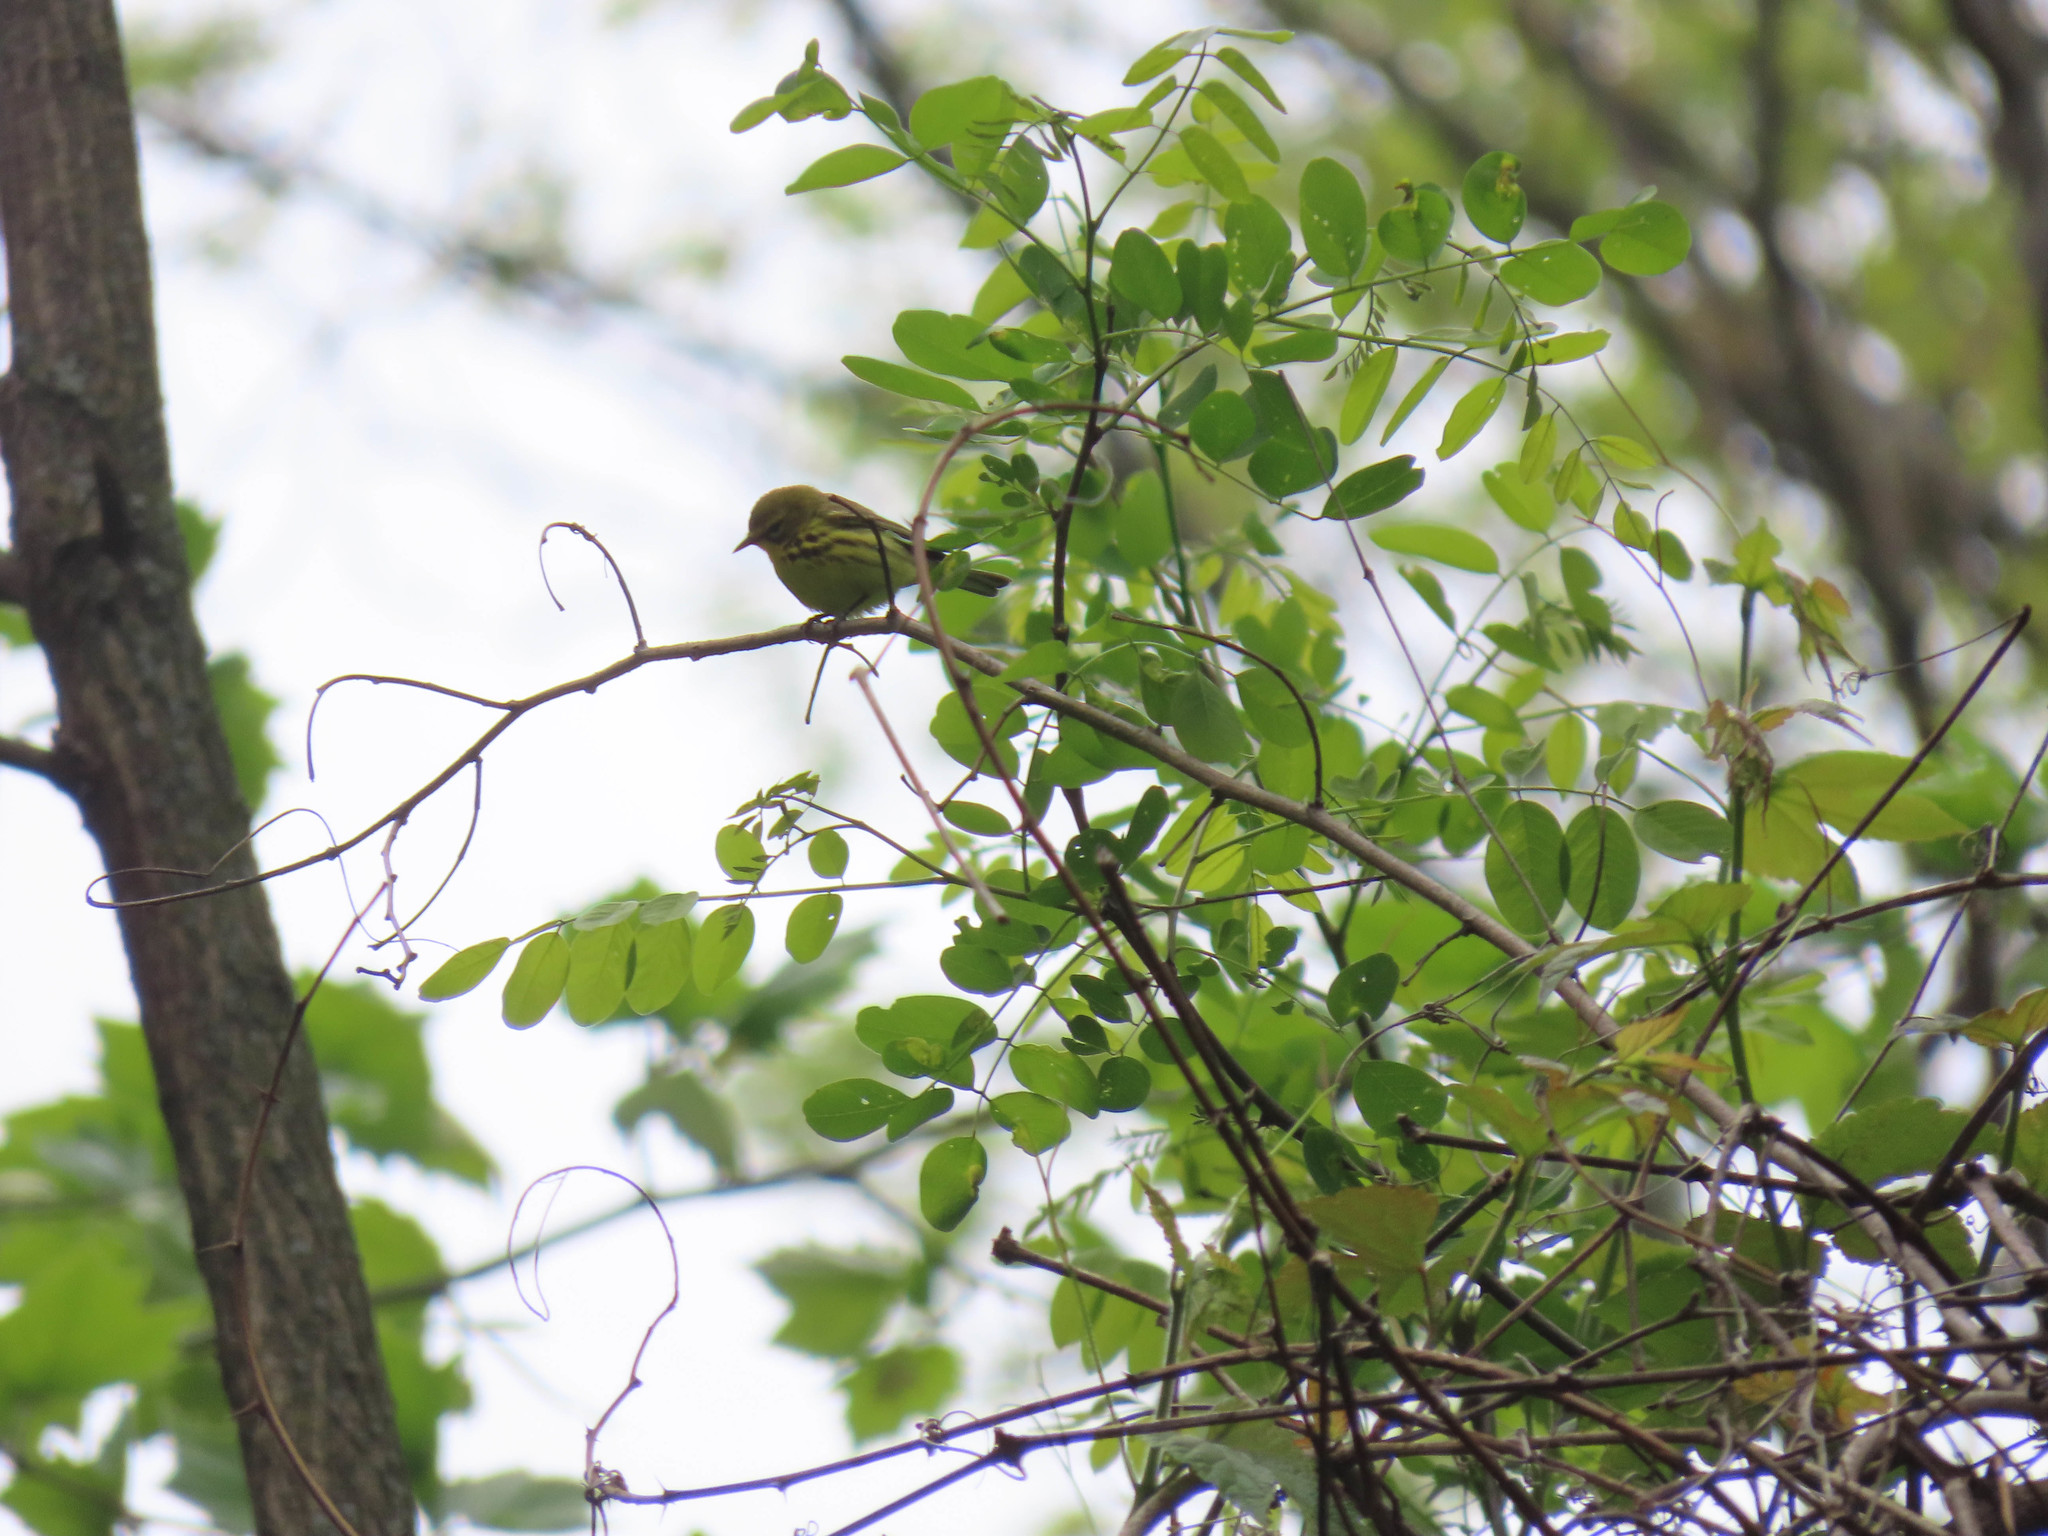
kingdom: Animalia
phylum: Chordata
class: Aves
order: Passeriformes
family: Parulidae
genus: Setophaga
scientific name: Setophaga discolor
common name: Prairie warbler
